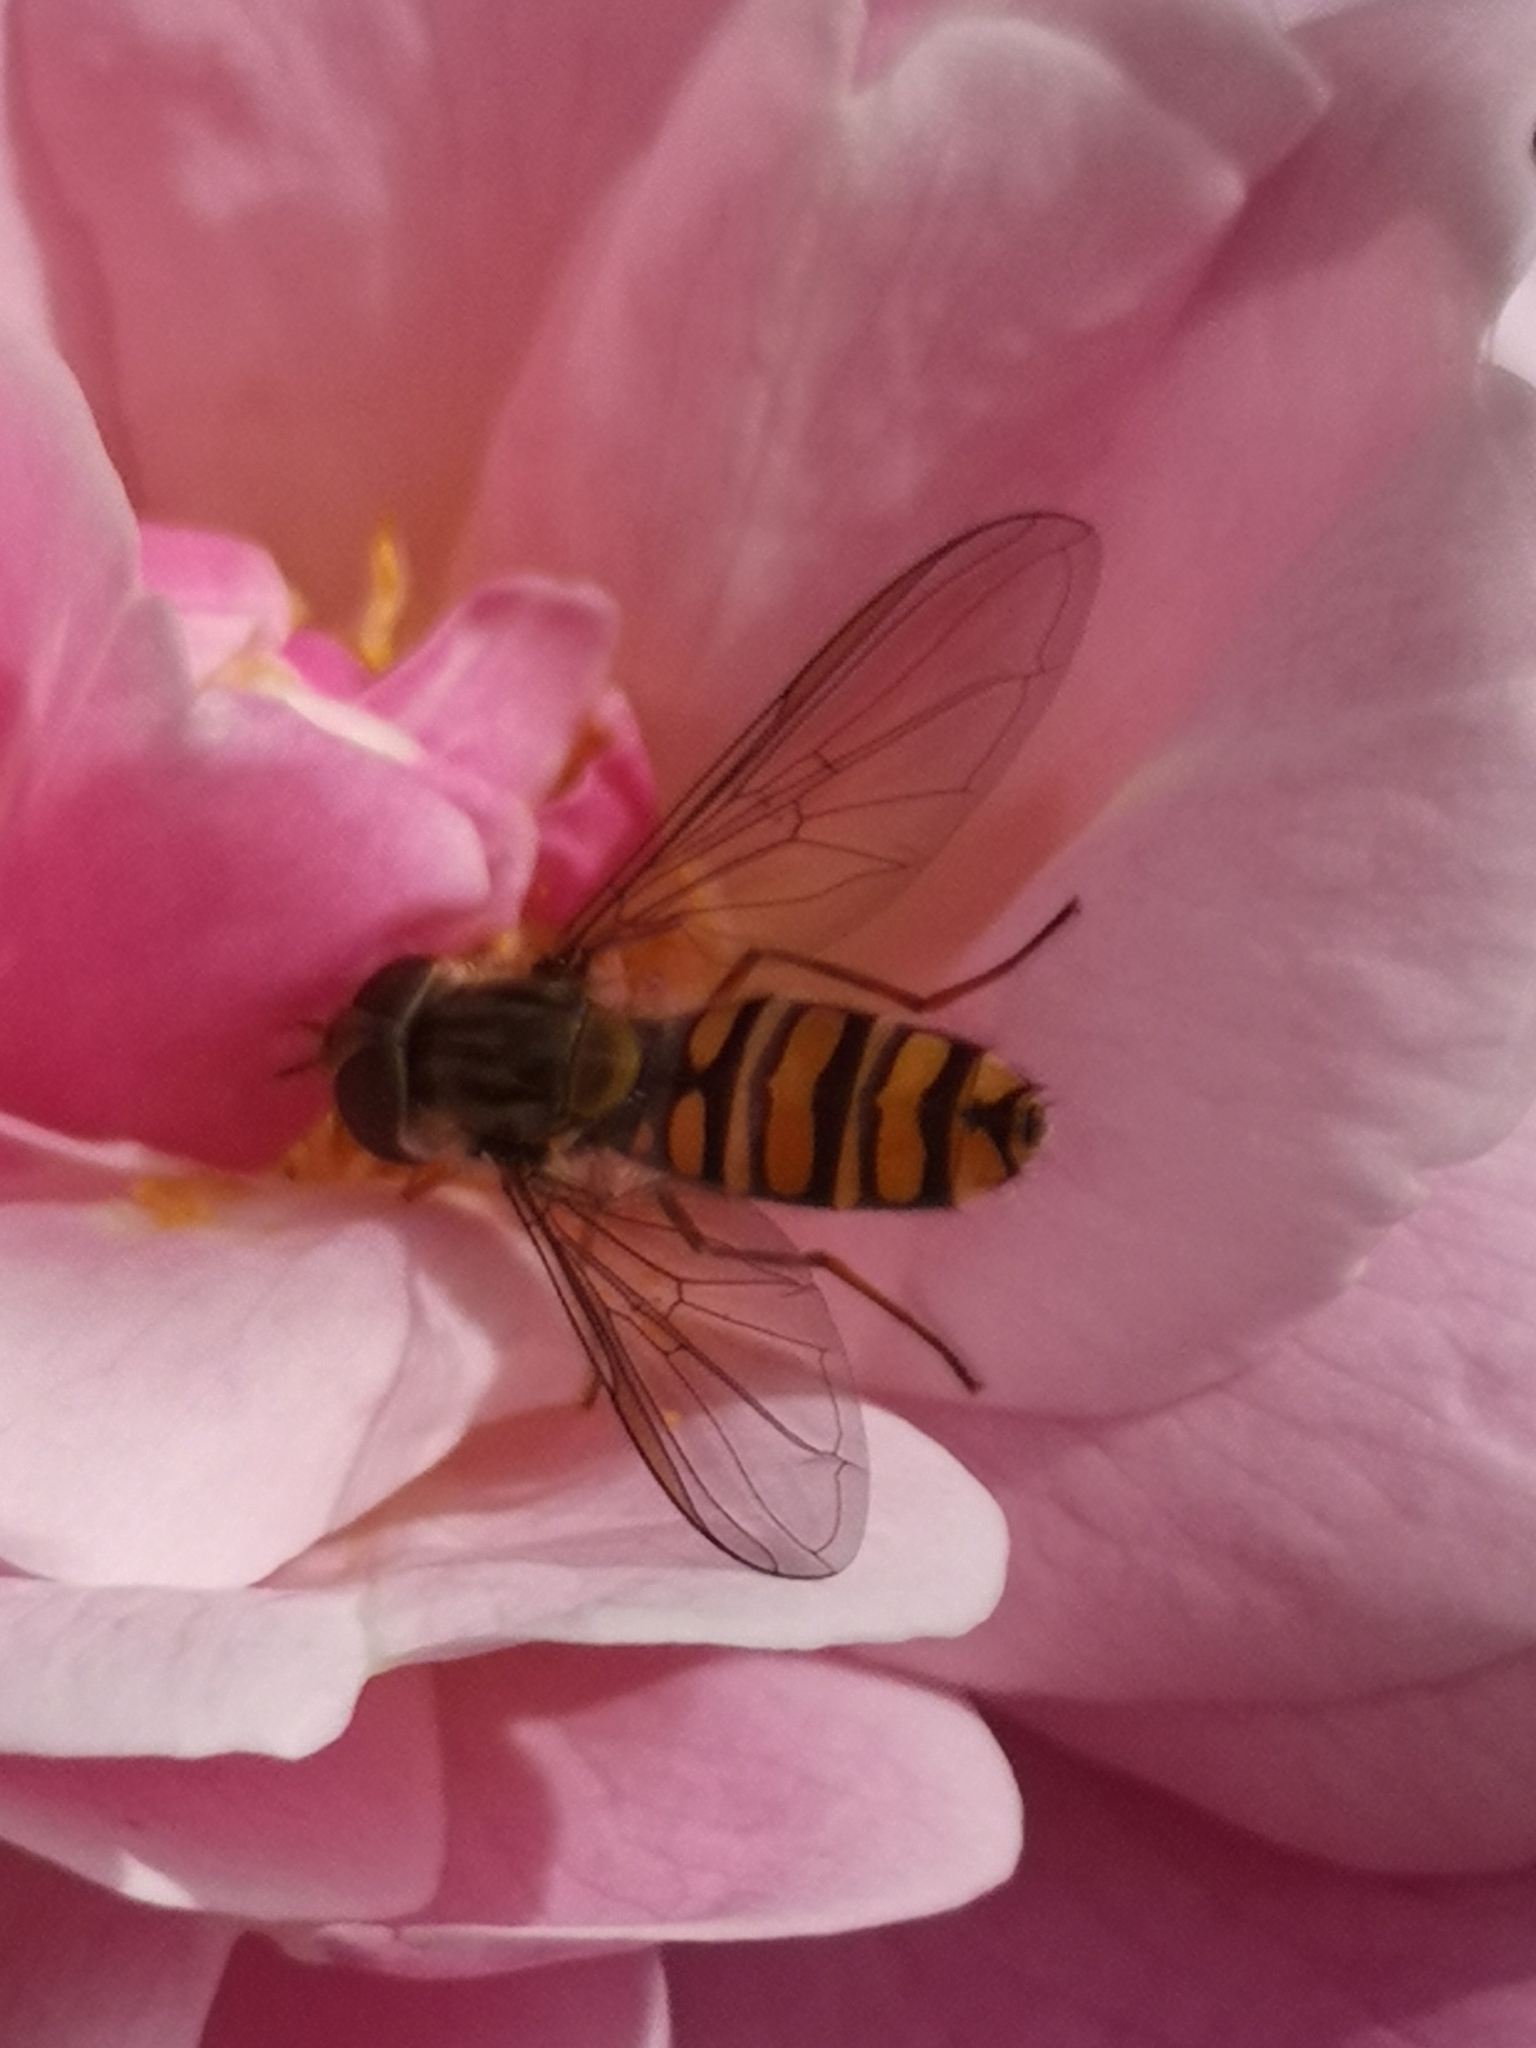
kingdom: Animalia
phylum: Arthropoda
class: Insecta
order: Diptera
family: Syrphidae
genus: Episyrphus
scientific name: Episyrphus balteatus
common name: Marmalade hoverfly
